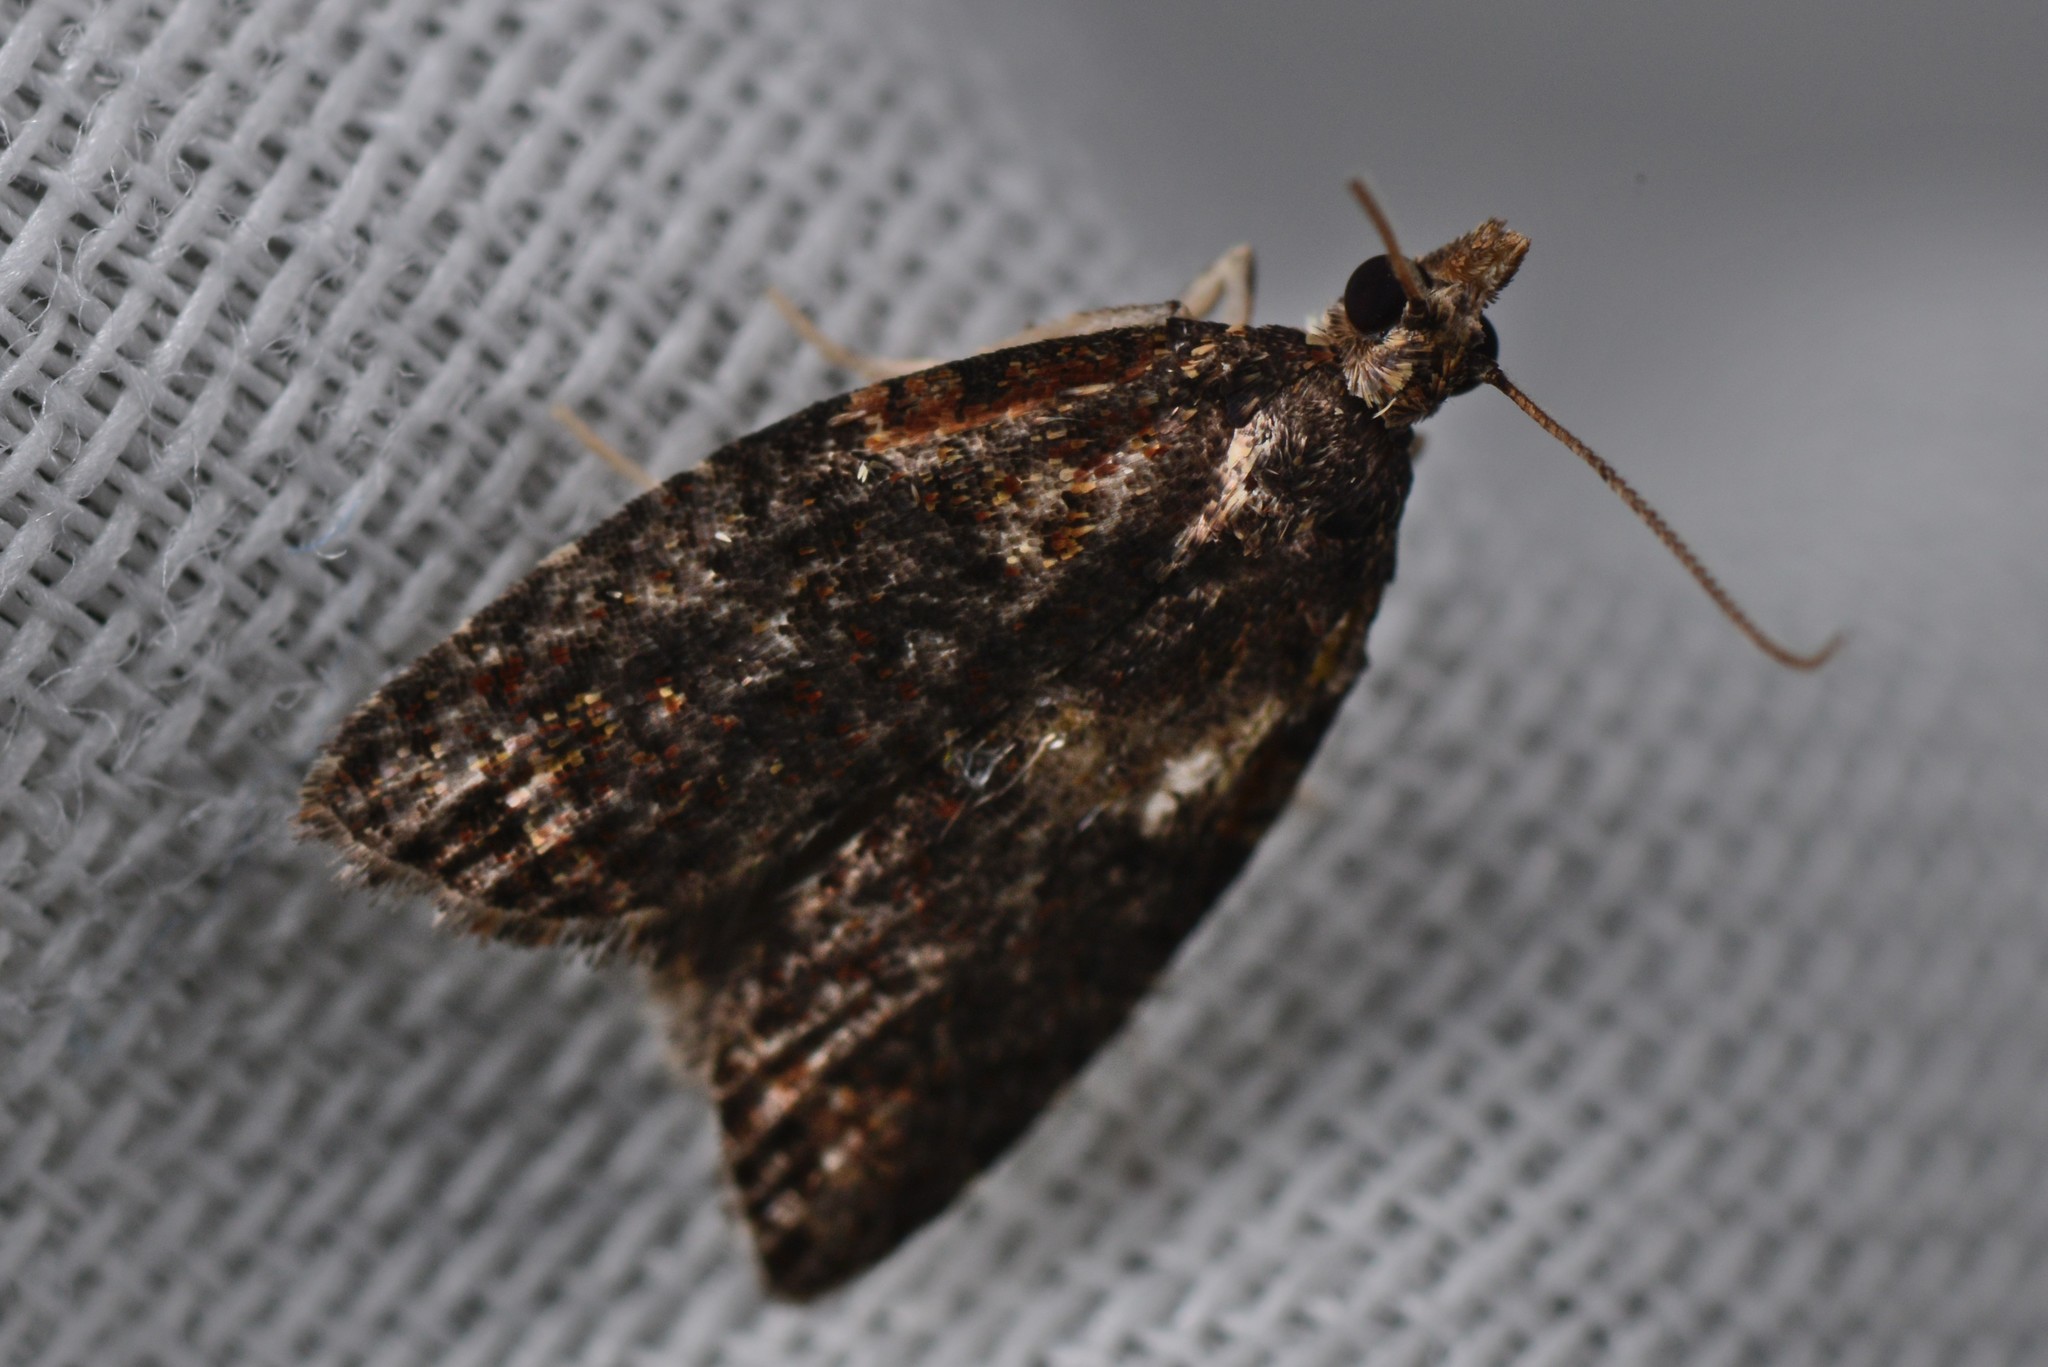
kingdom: Animalia
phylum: Arthropoda
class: Insecta
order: Lepidoptera
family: Tortricidae
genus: Capua
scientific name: Capua intractana
